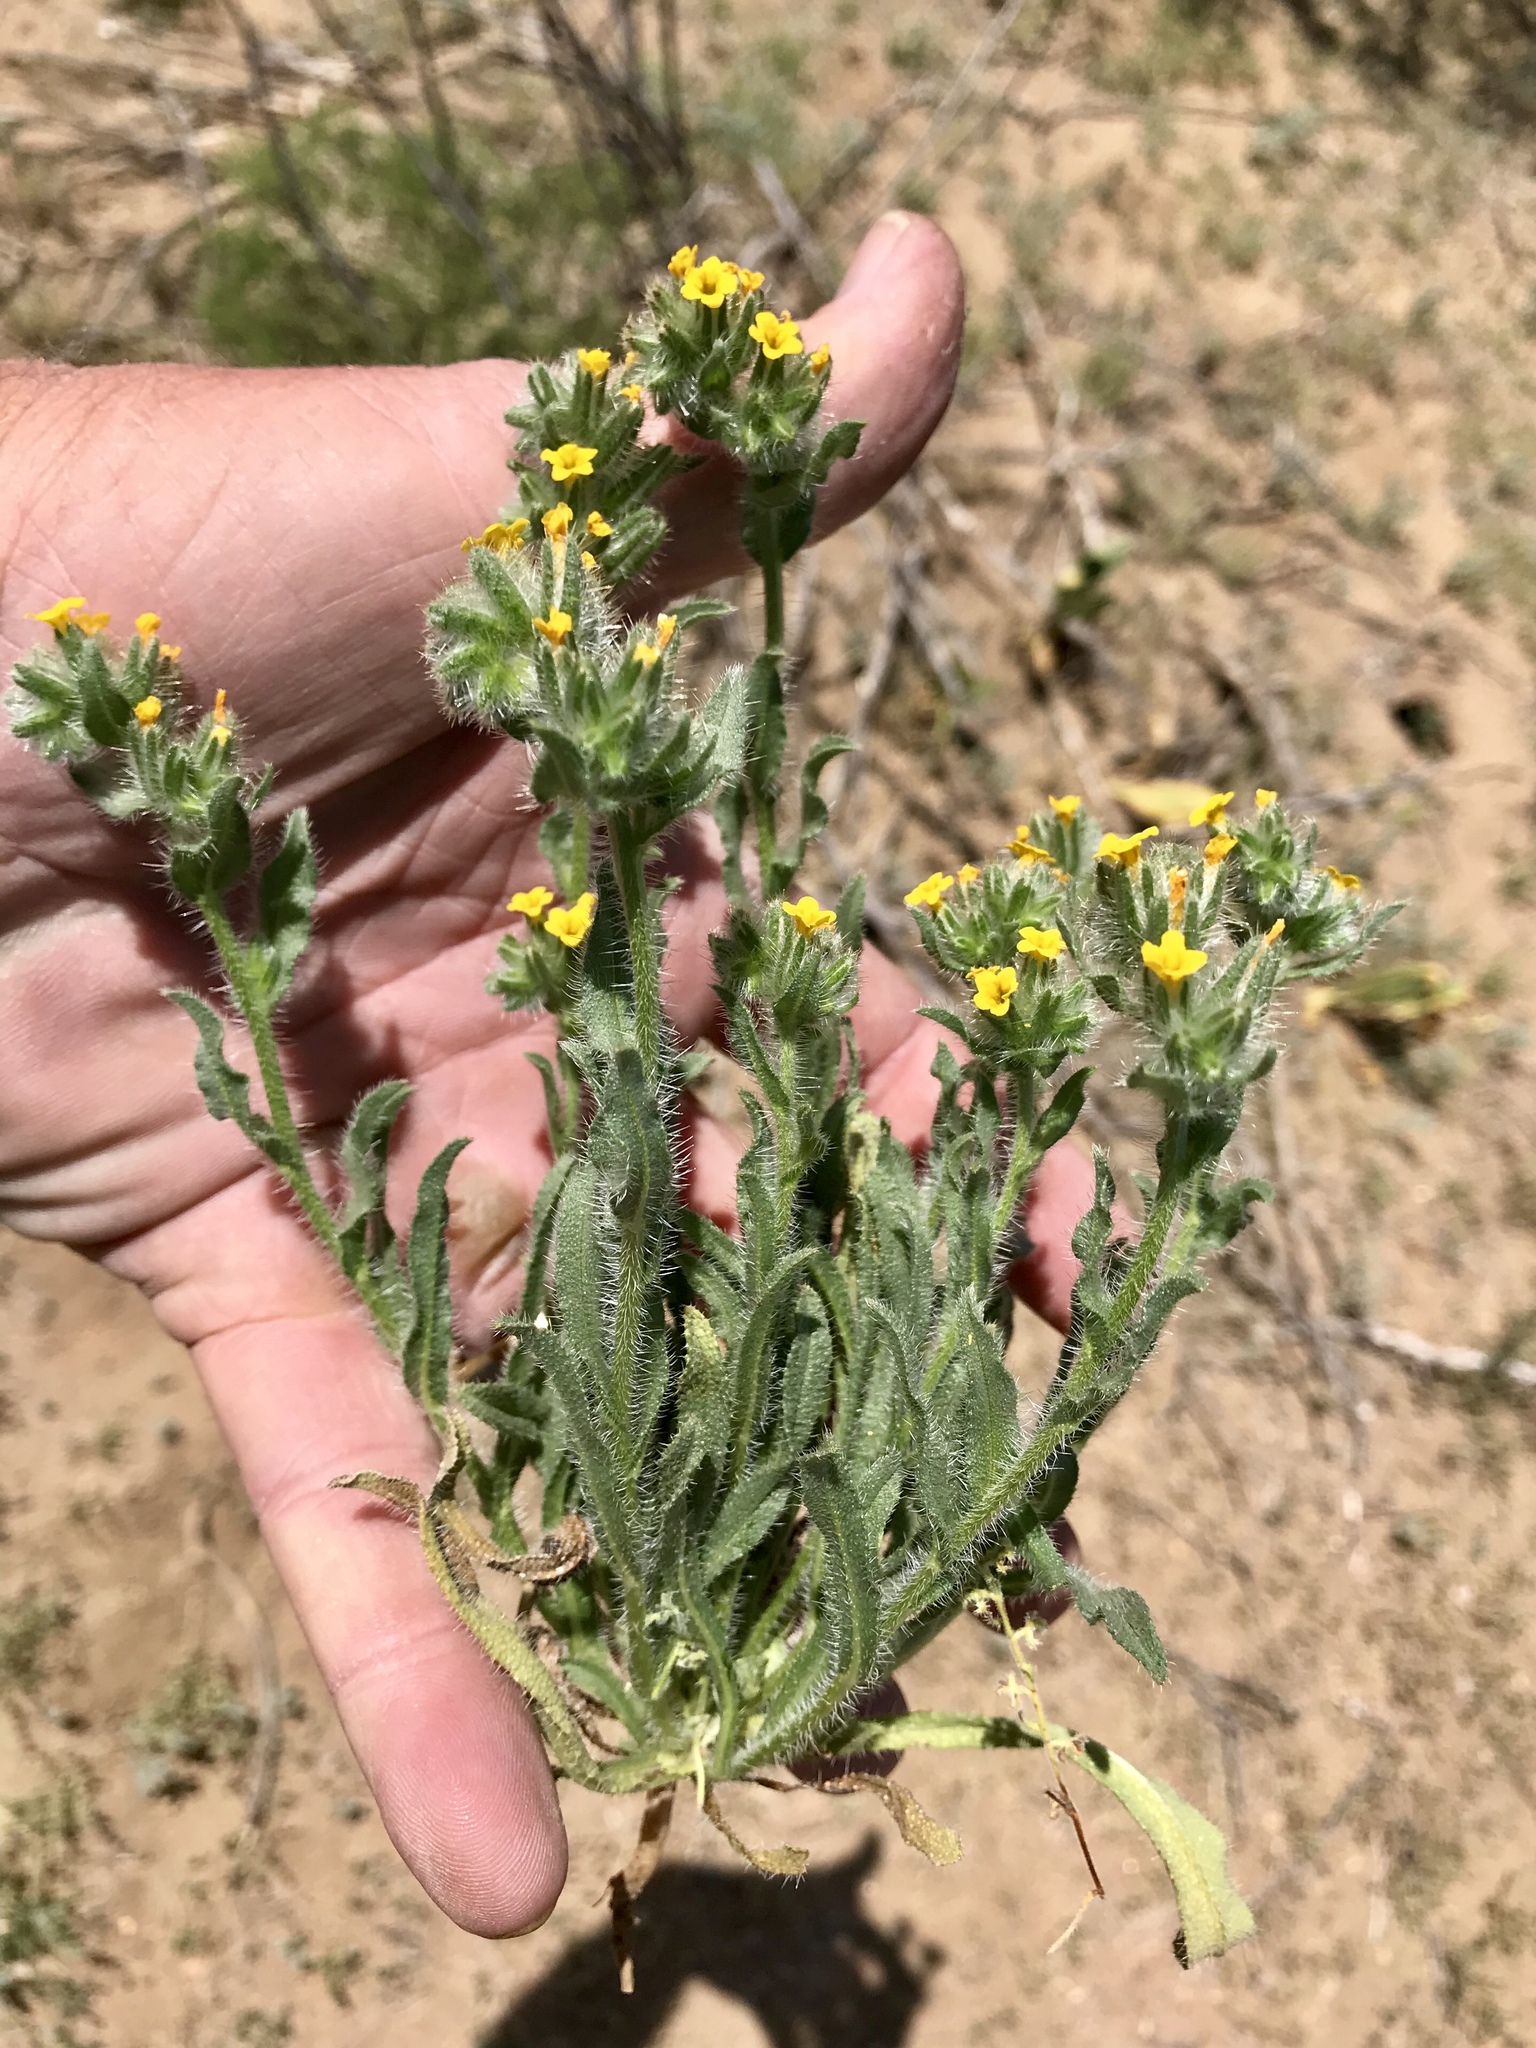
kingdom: Plantae
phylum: Tracheophyta
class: Magnoliopsida
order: Boraginales
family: Boraginaceae
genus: Amsinckia
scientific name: Amsinckia tessellata
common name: Tessellate fiddleneck
